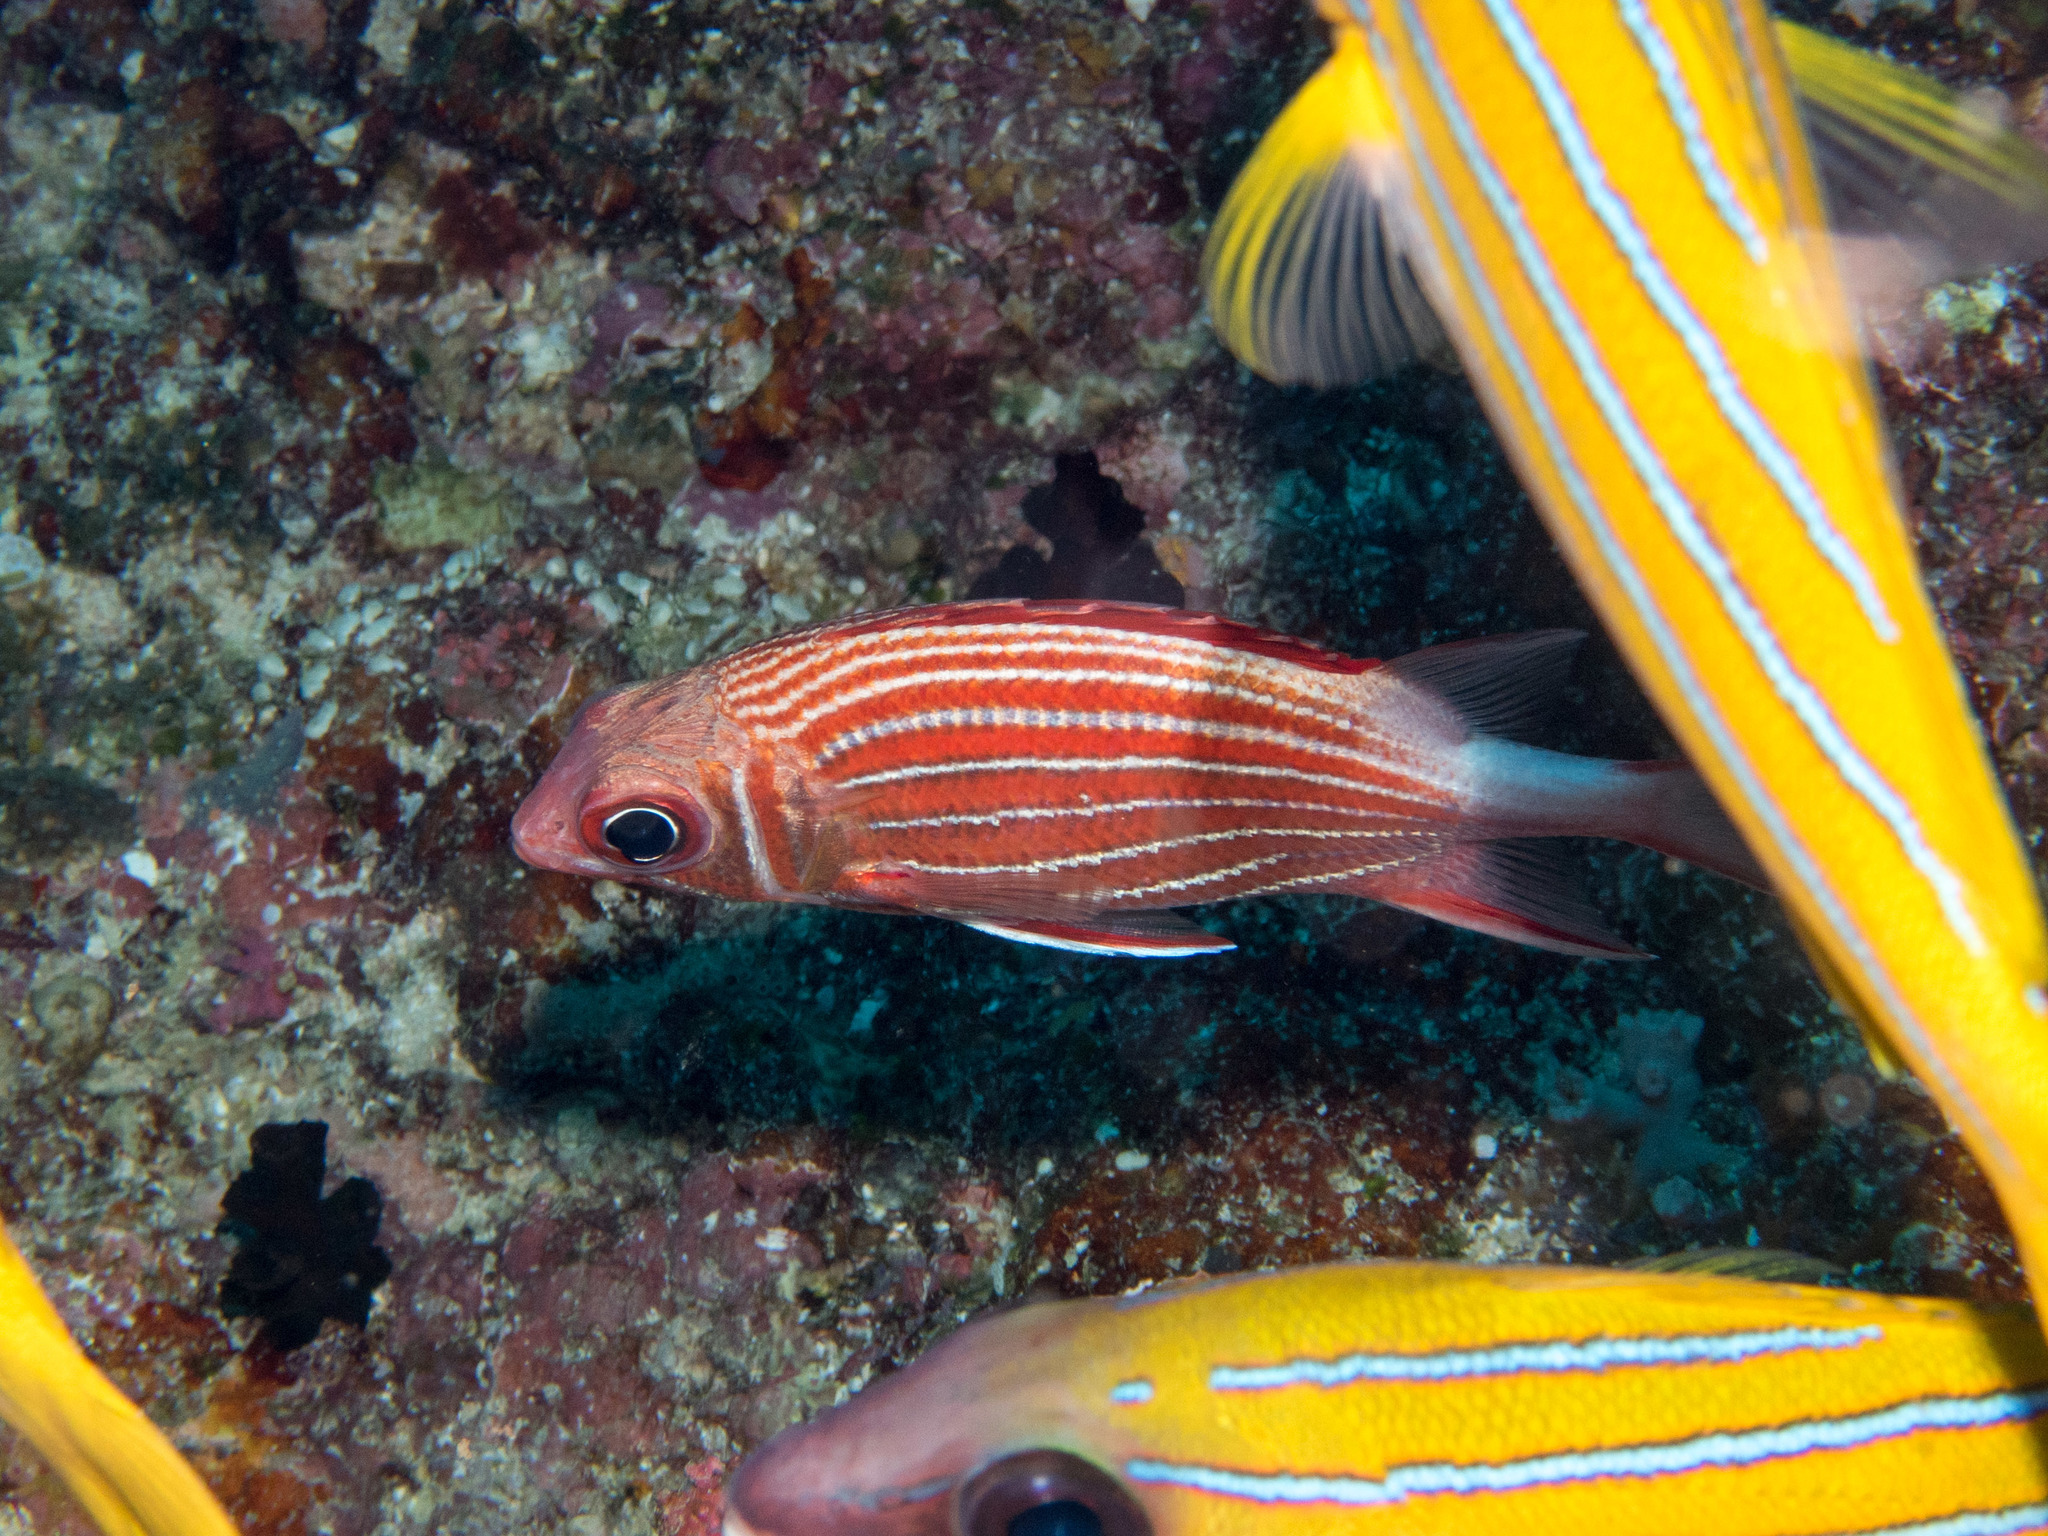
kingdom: Animalia
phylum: Chordata
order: Beryciformes
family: Holocentridae
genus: Sargocentron
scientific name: Sargocentron diadema
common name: Crown squirrelfish
